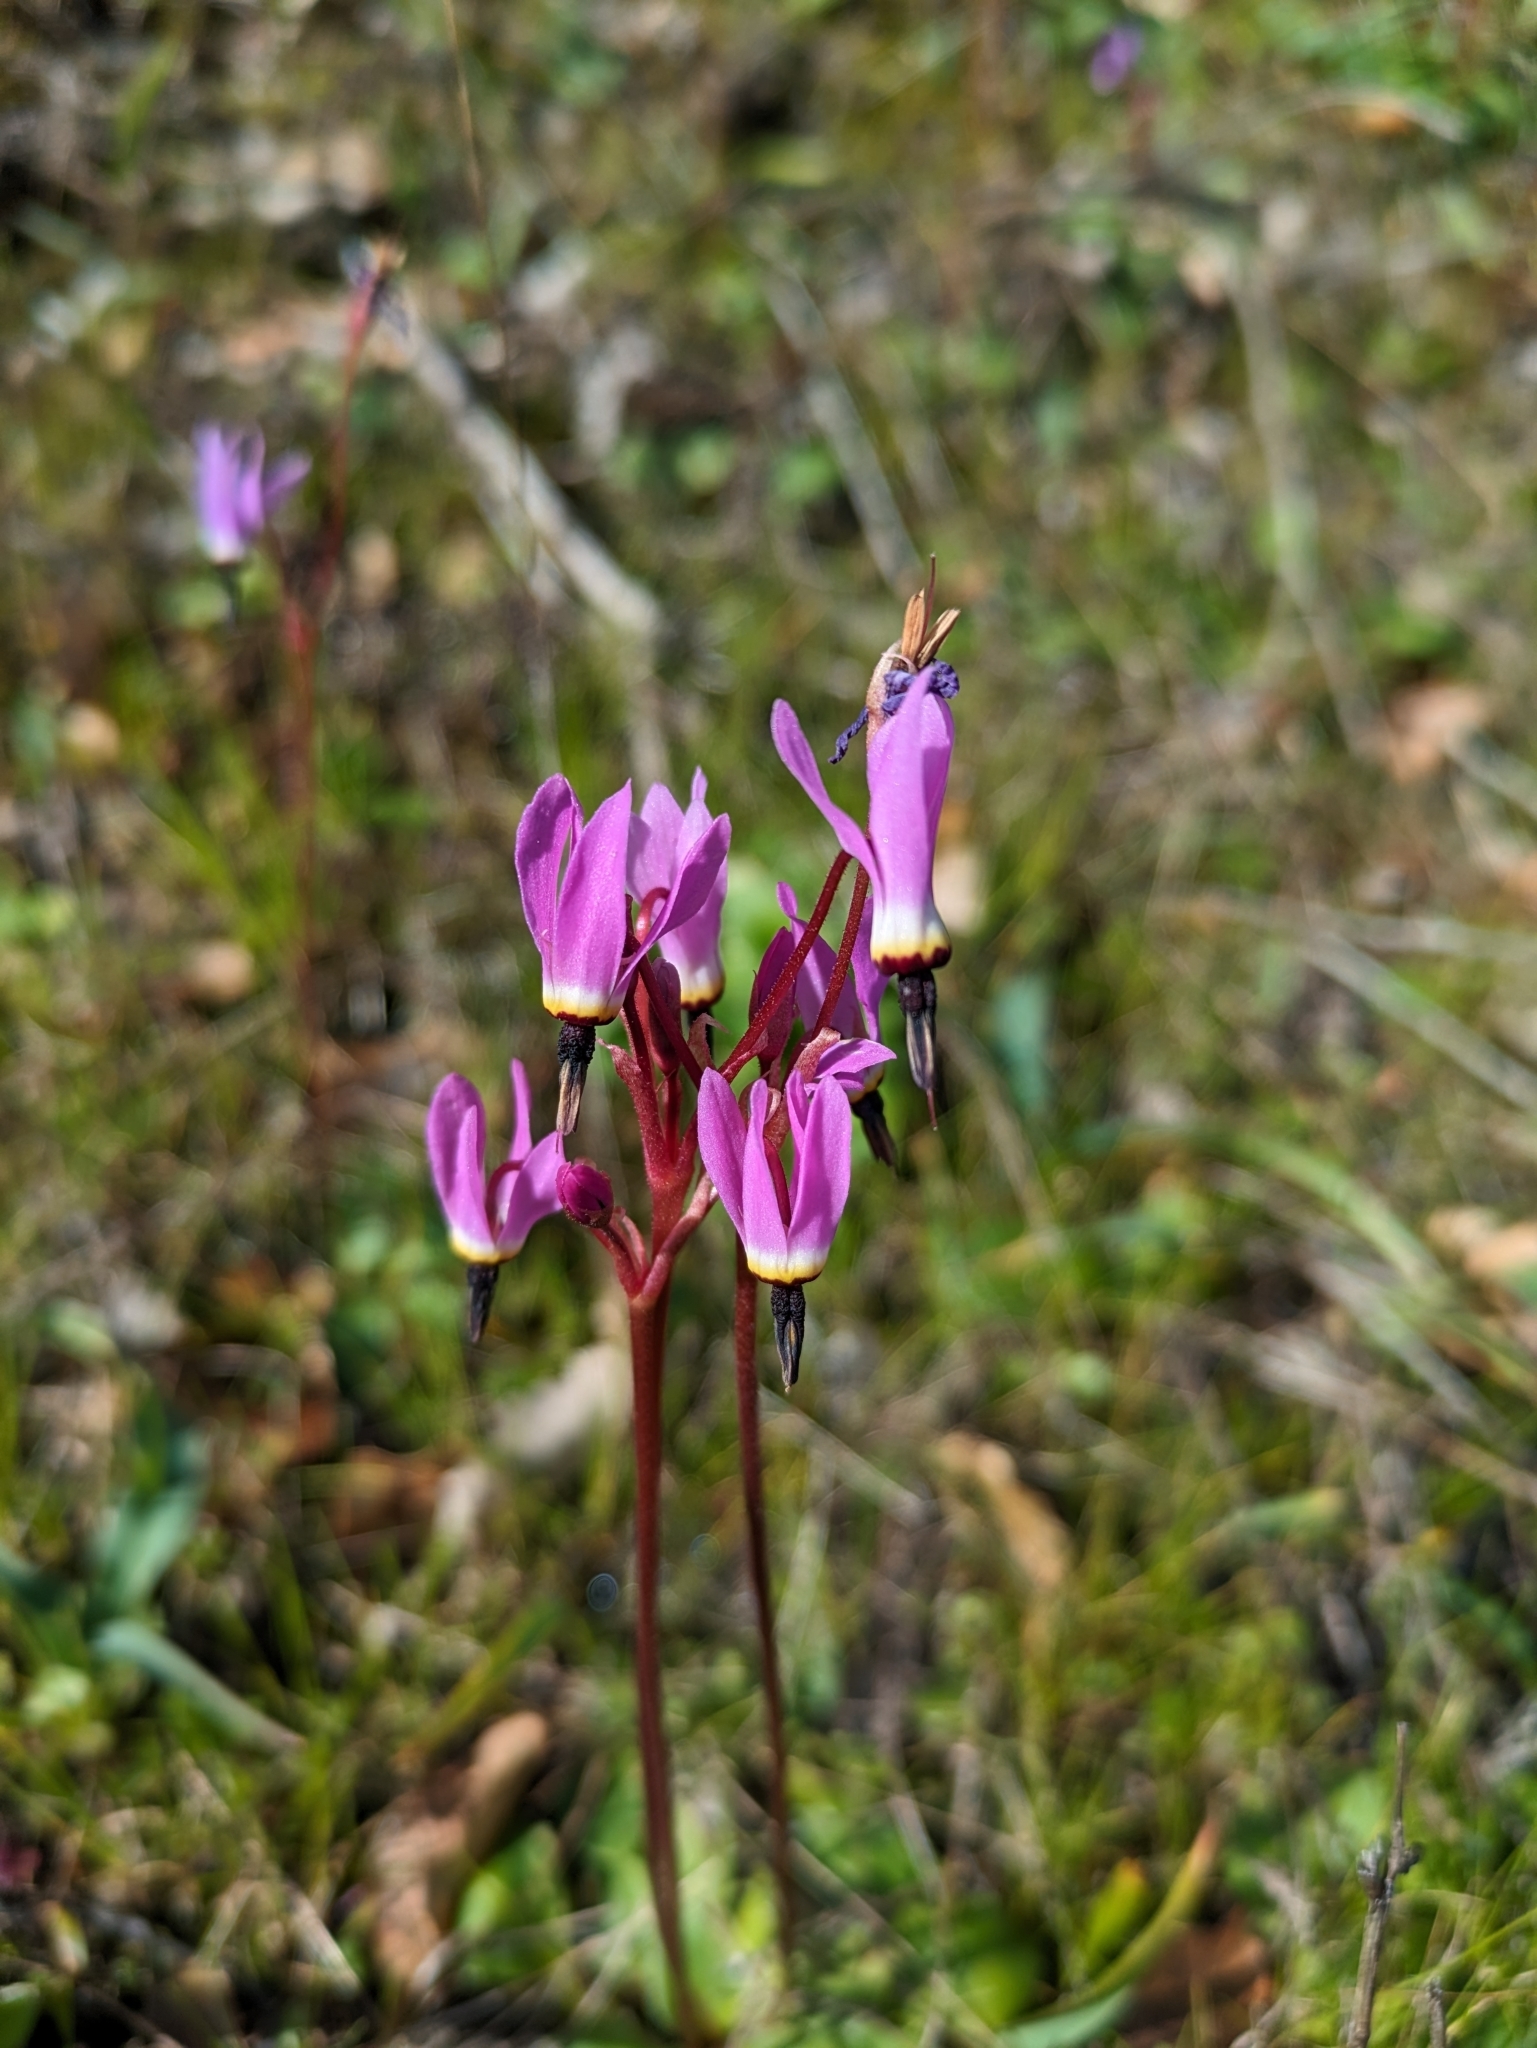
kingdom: Plantae
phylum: Tracheophyta
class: Magnoliopsida
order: Ericales
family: Primulaceae
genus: Dodecatheon
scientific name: Dodecatheon hendersonii
